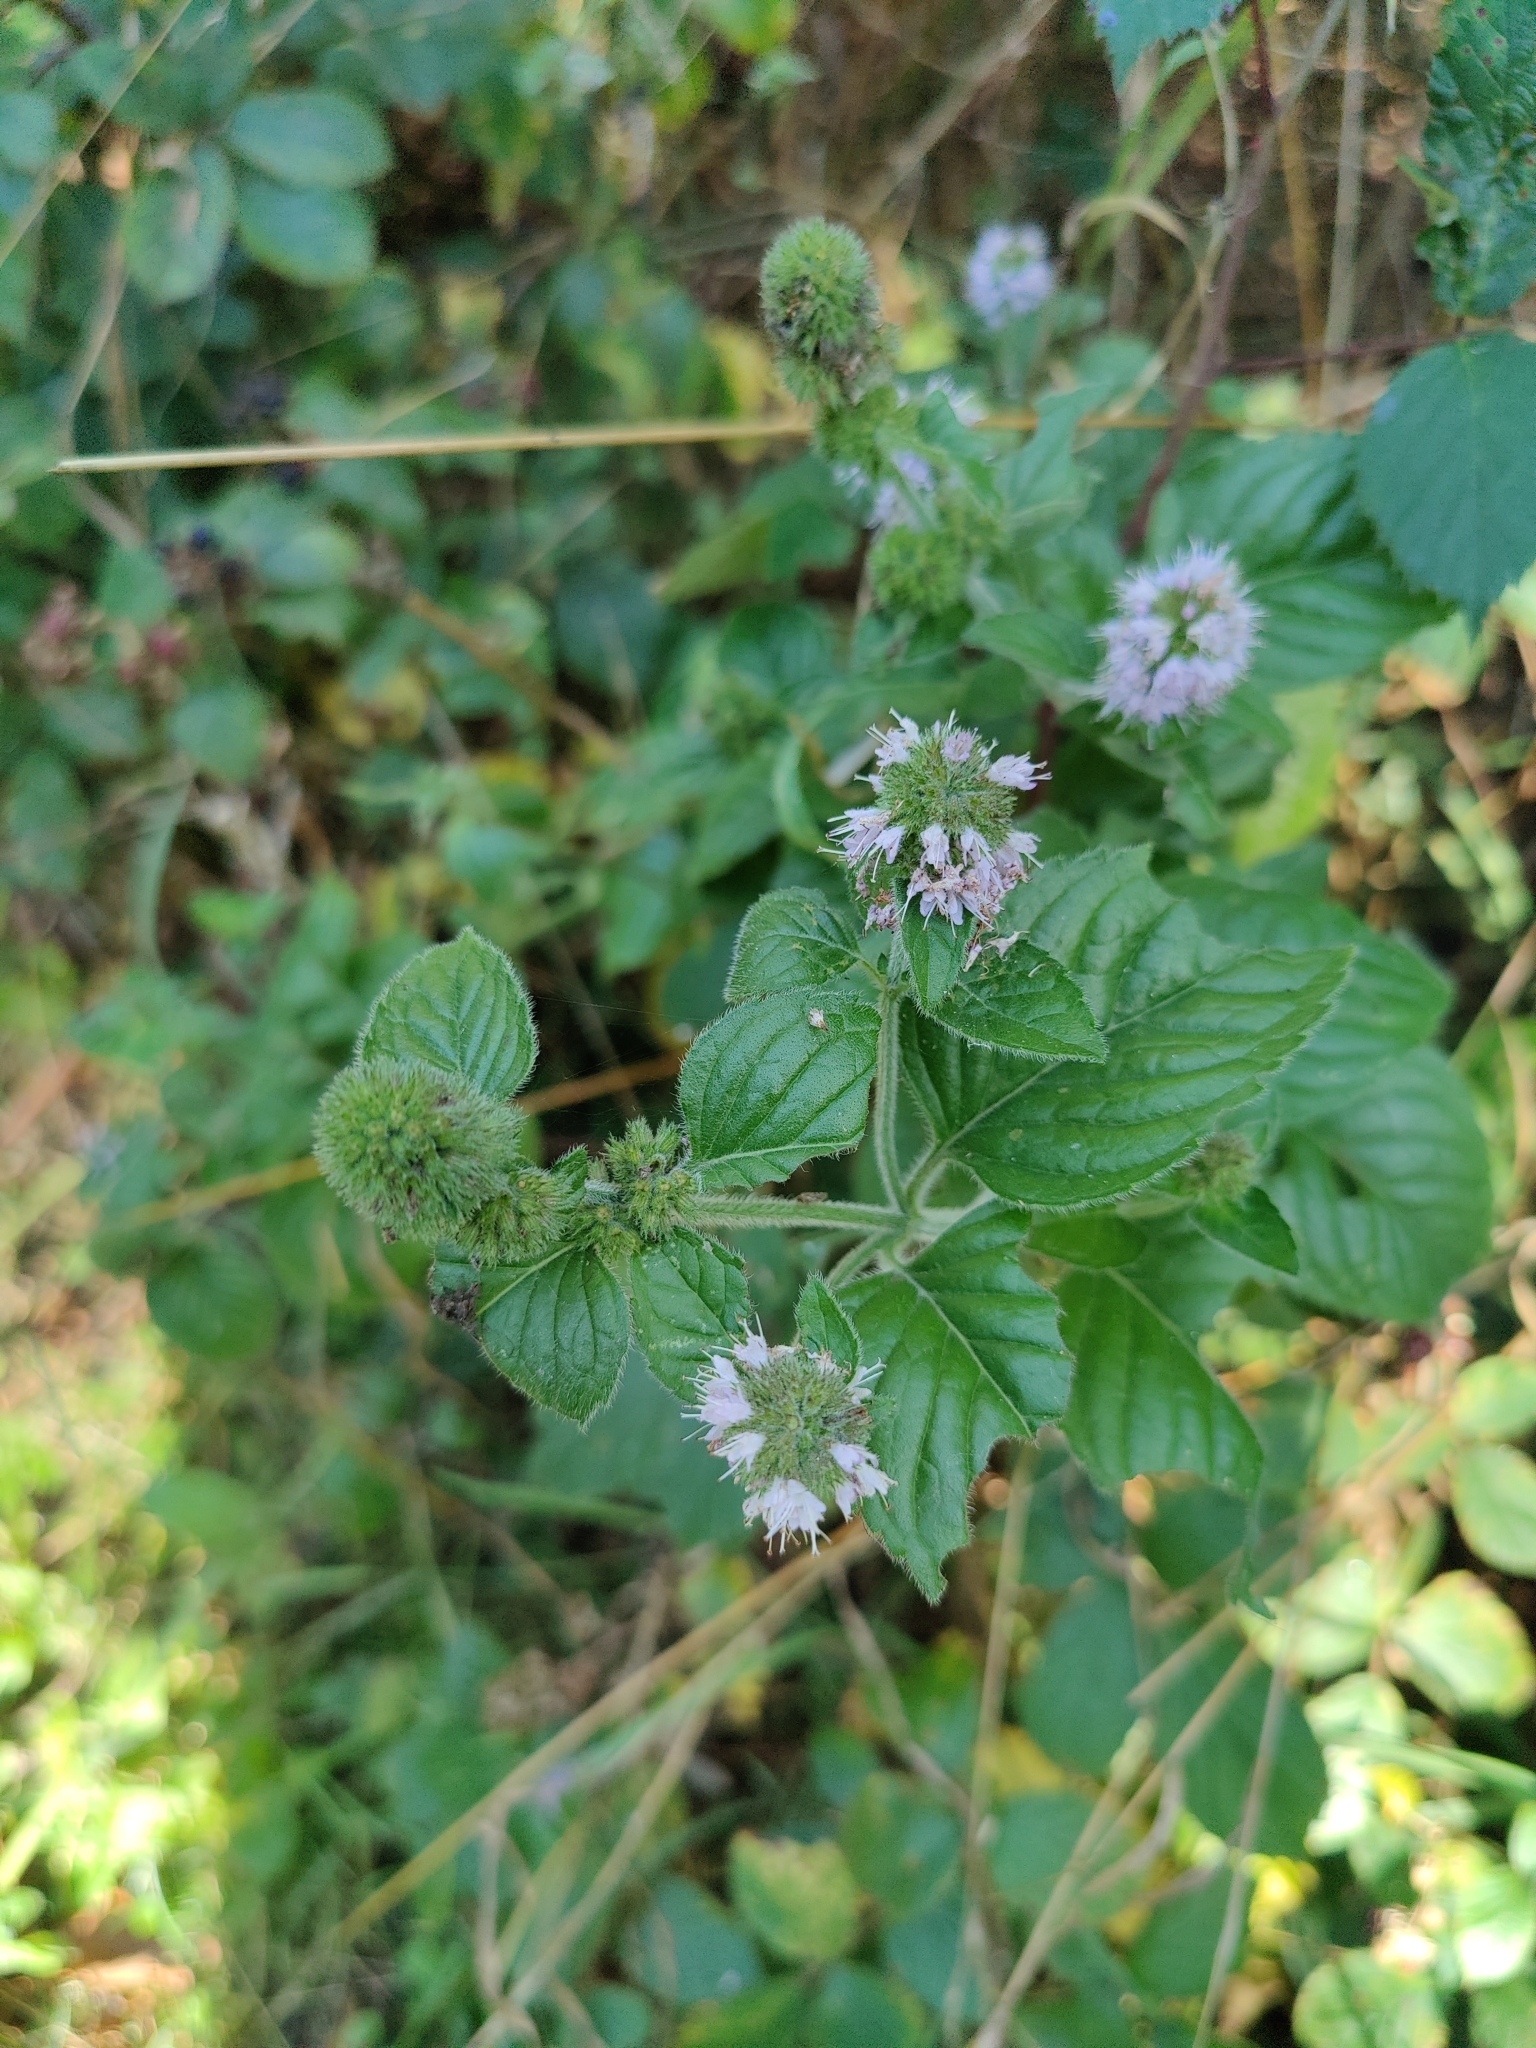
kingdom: Plantae
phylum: Tracheophyta
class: Magnoliopsida
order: Lamiales
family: Lamiaceae
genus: Mentha
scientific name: Mentha aquatica
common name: Water mint
